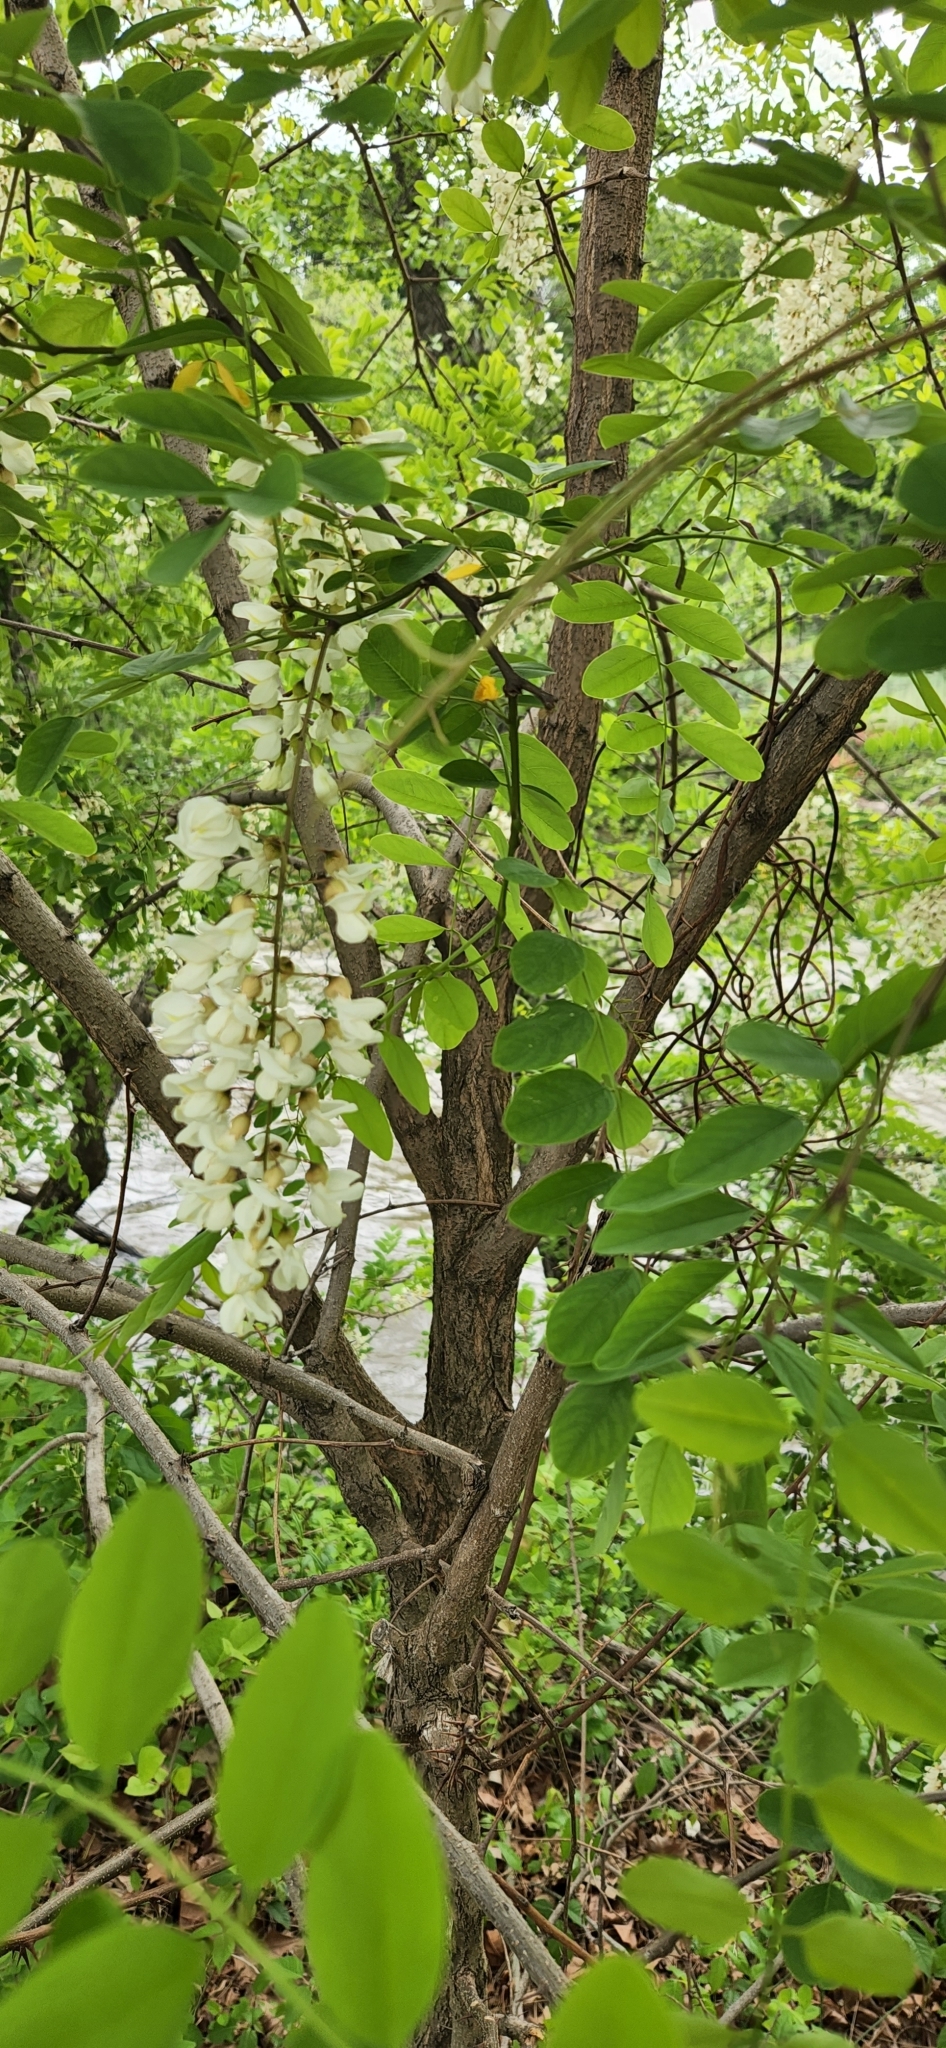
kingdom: Plantae
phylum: Tracheophyta
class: Magnoliopsida
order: Fabales
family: Fabaceae
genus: Robinia
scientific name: Robinia pseudoacacia
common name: Black locust
